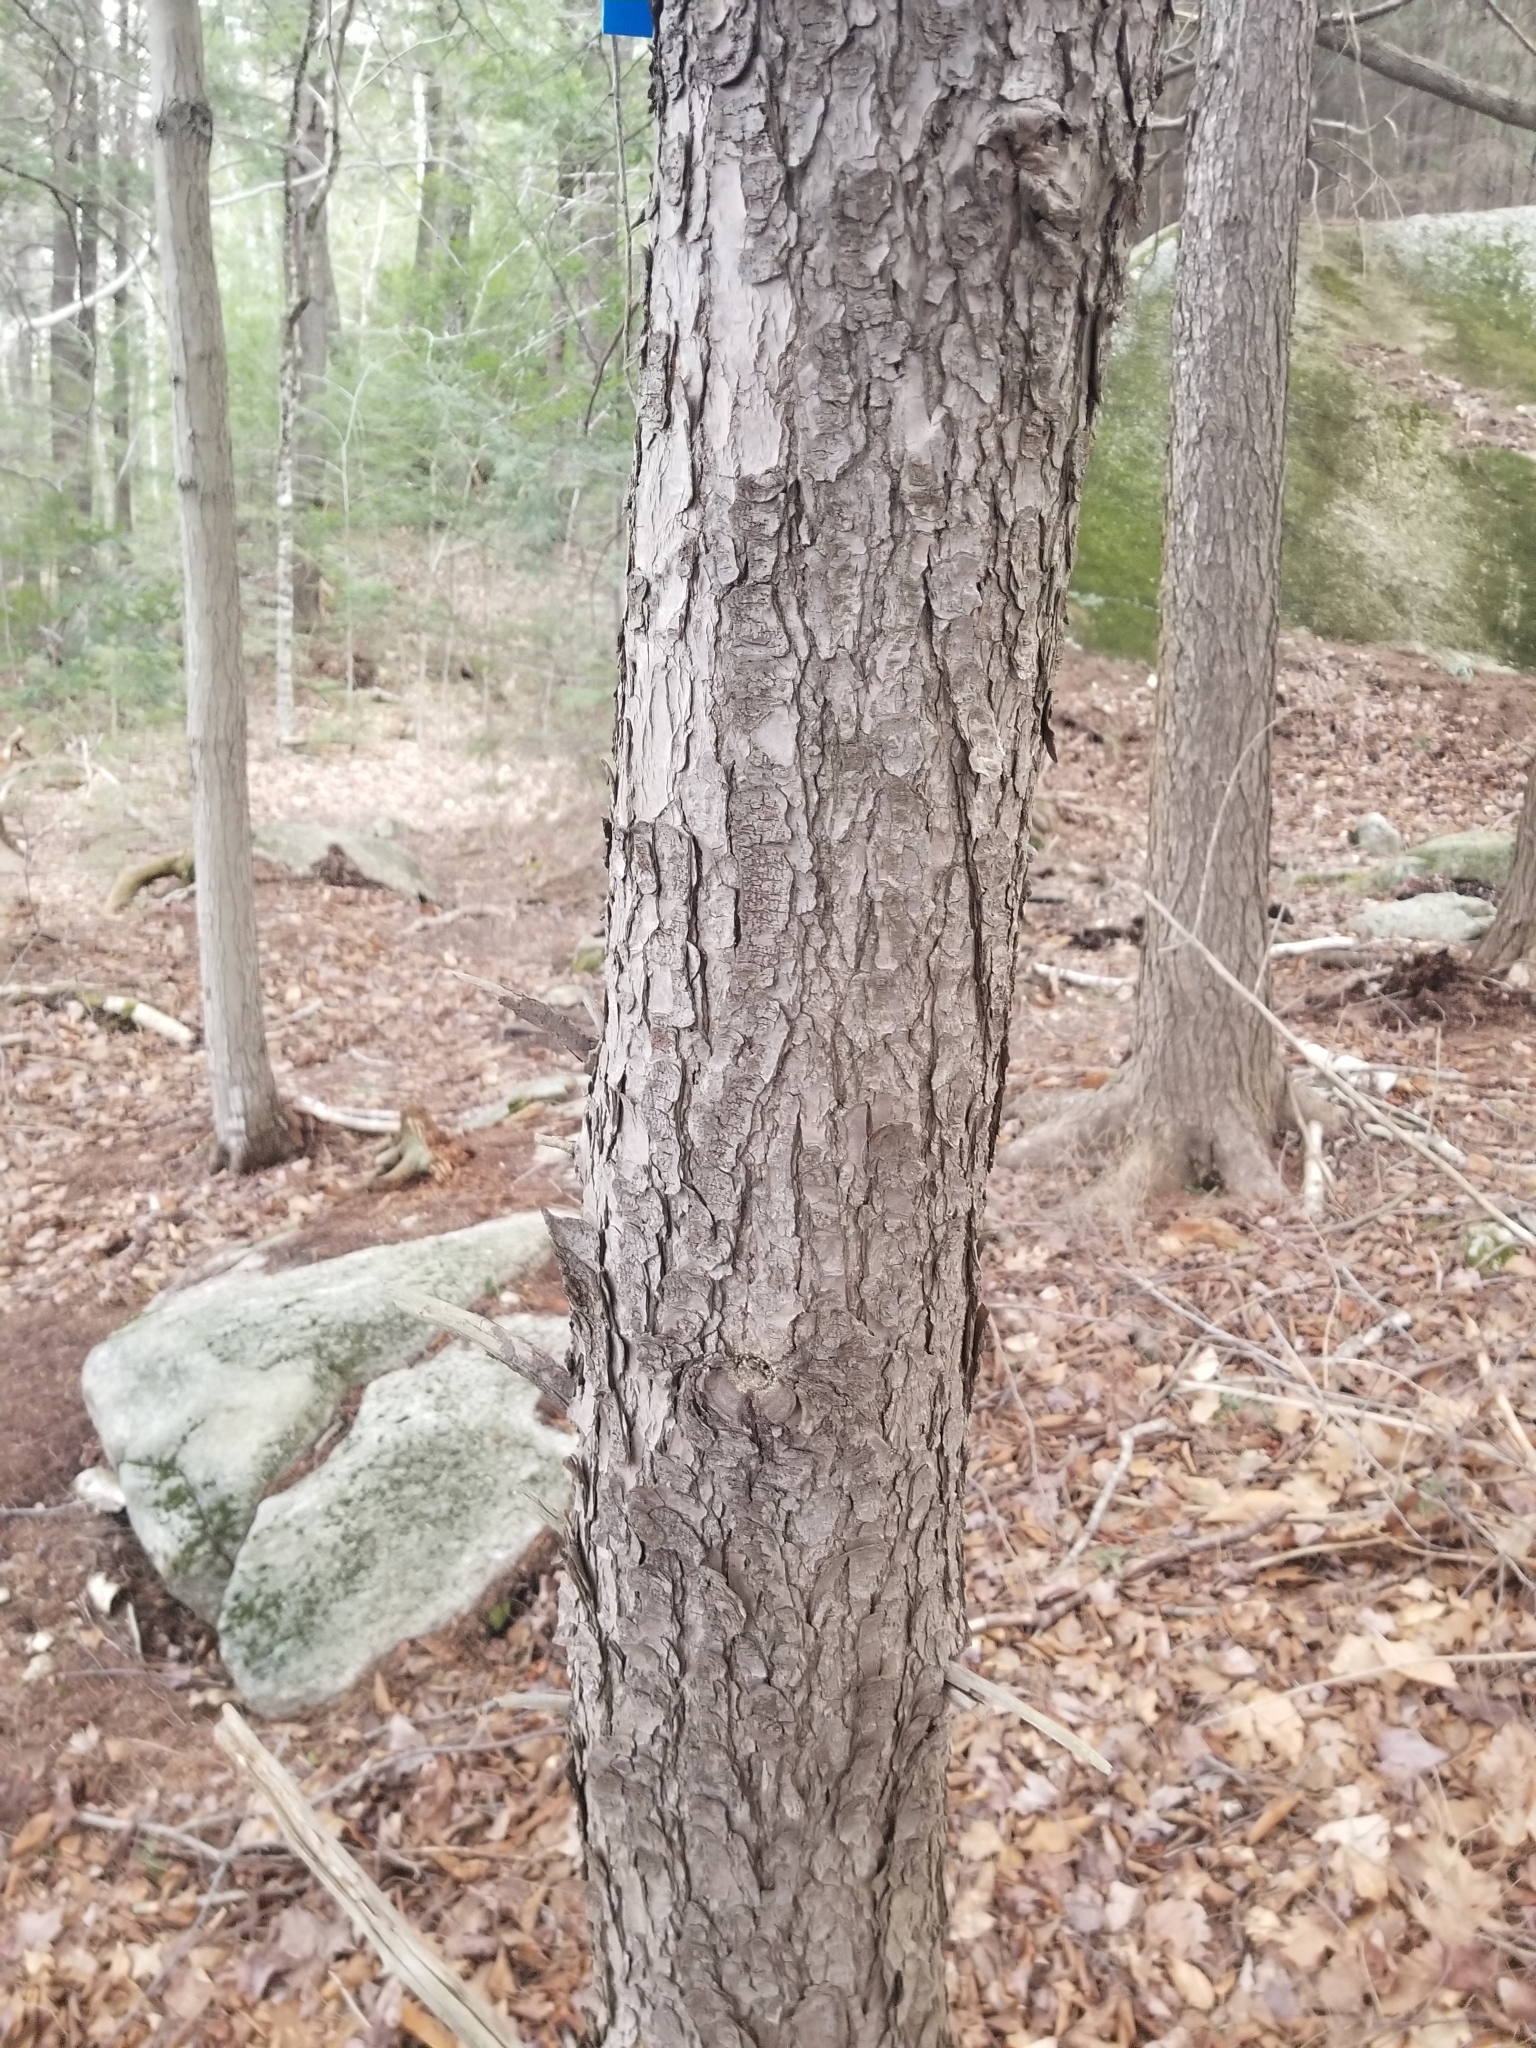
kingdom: Plantae
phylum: Tracheophyta
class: Pinopsida
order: Pinales
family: Pinaceae
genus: Tsuga
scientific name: Tsuga canadensis
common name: Eastern hemlock
